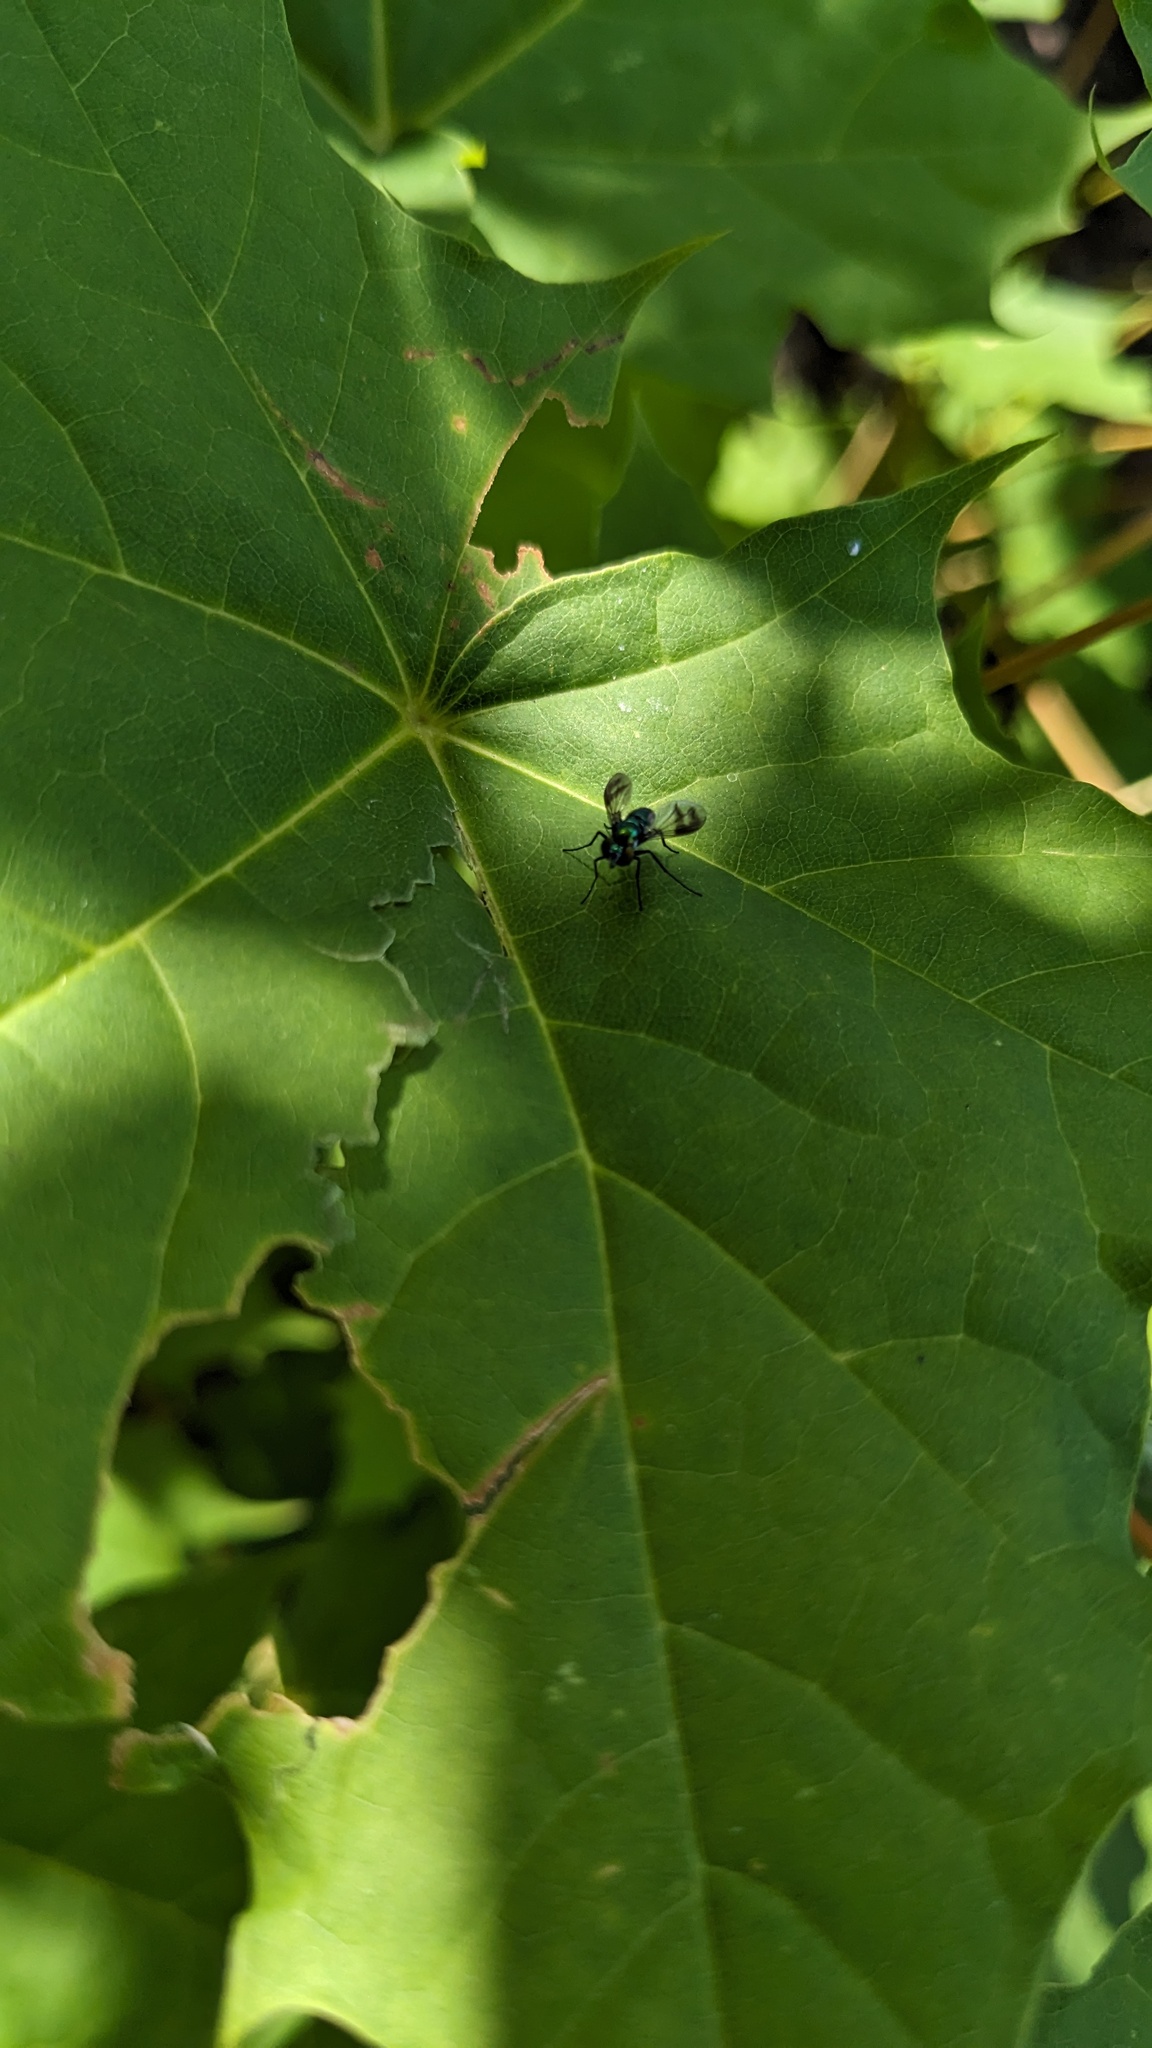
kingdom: Animalia
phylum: Arthropoda
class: Insecta
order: Diptera
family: Dolichopodidae
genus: Condylostylus
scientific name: Condylostylus patibulatus
